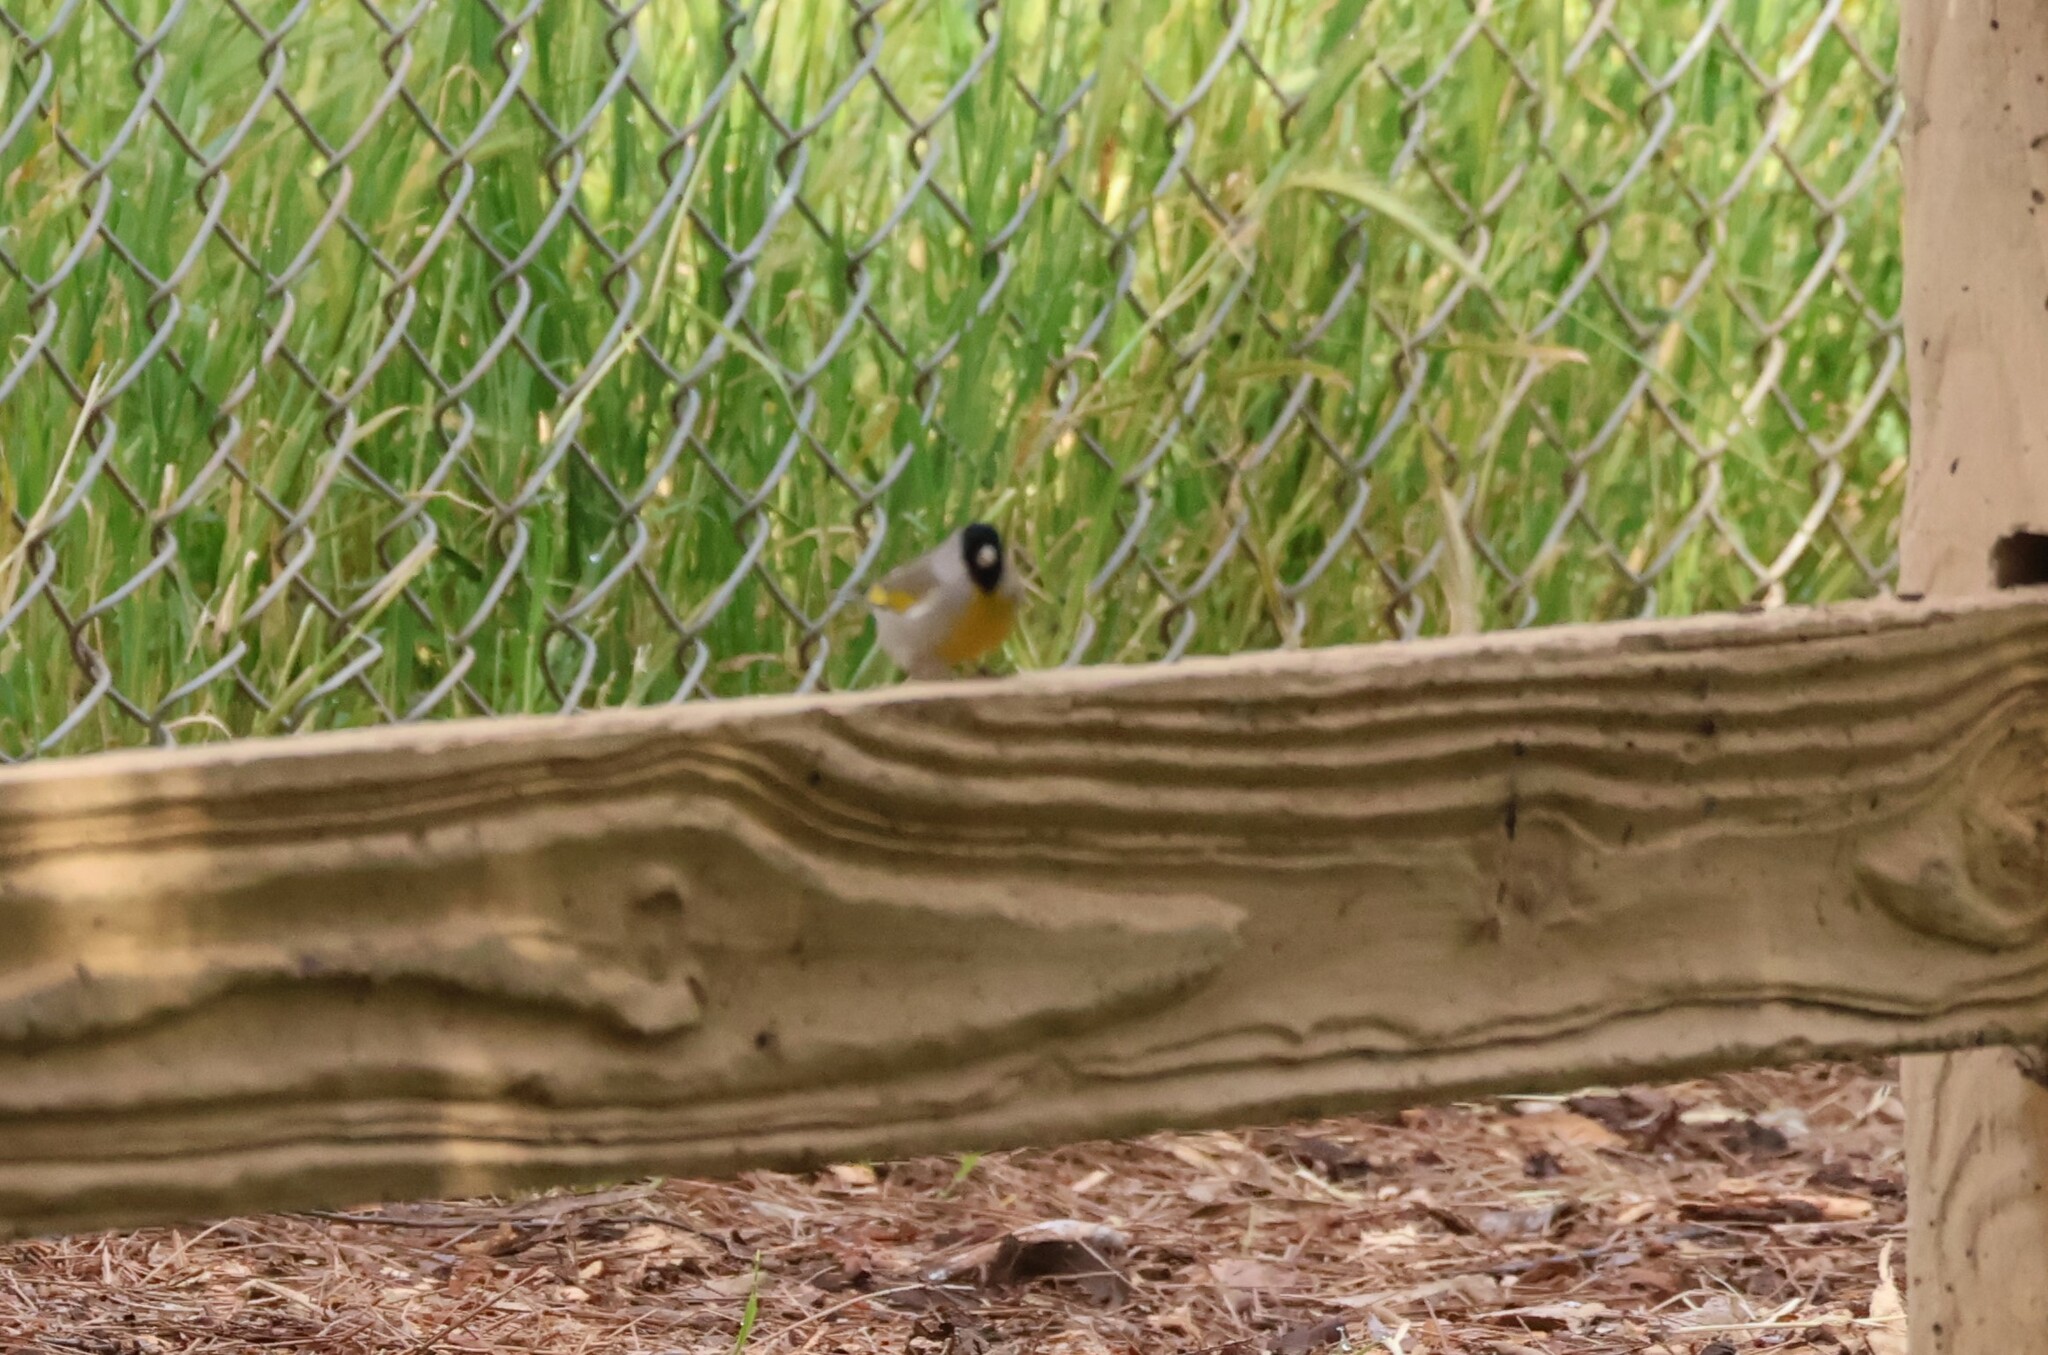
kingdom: Animalia
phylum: Chordata
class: Aves
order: Passeriformes
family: Fringillidae
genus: Spinus
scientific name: Spinus lawrencei
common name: Lawrence's goldfinch
